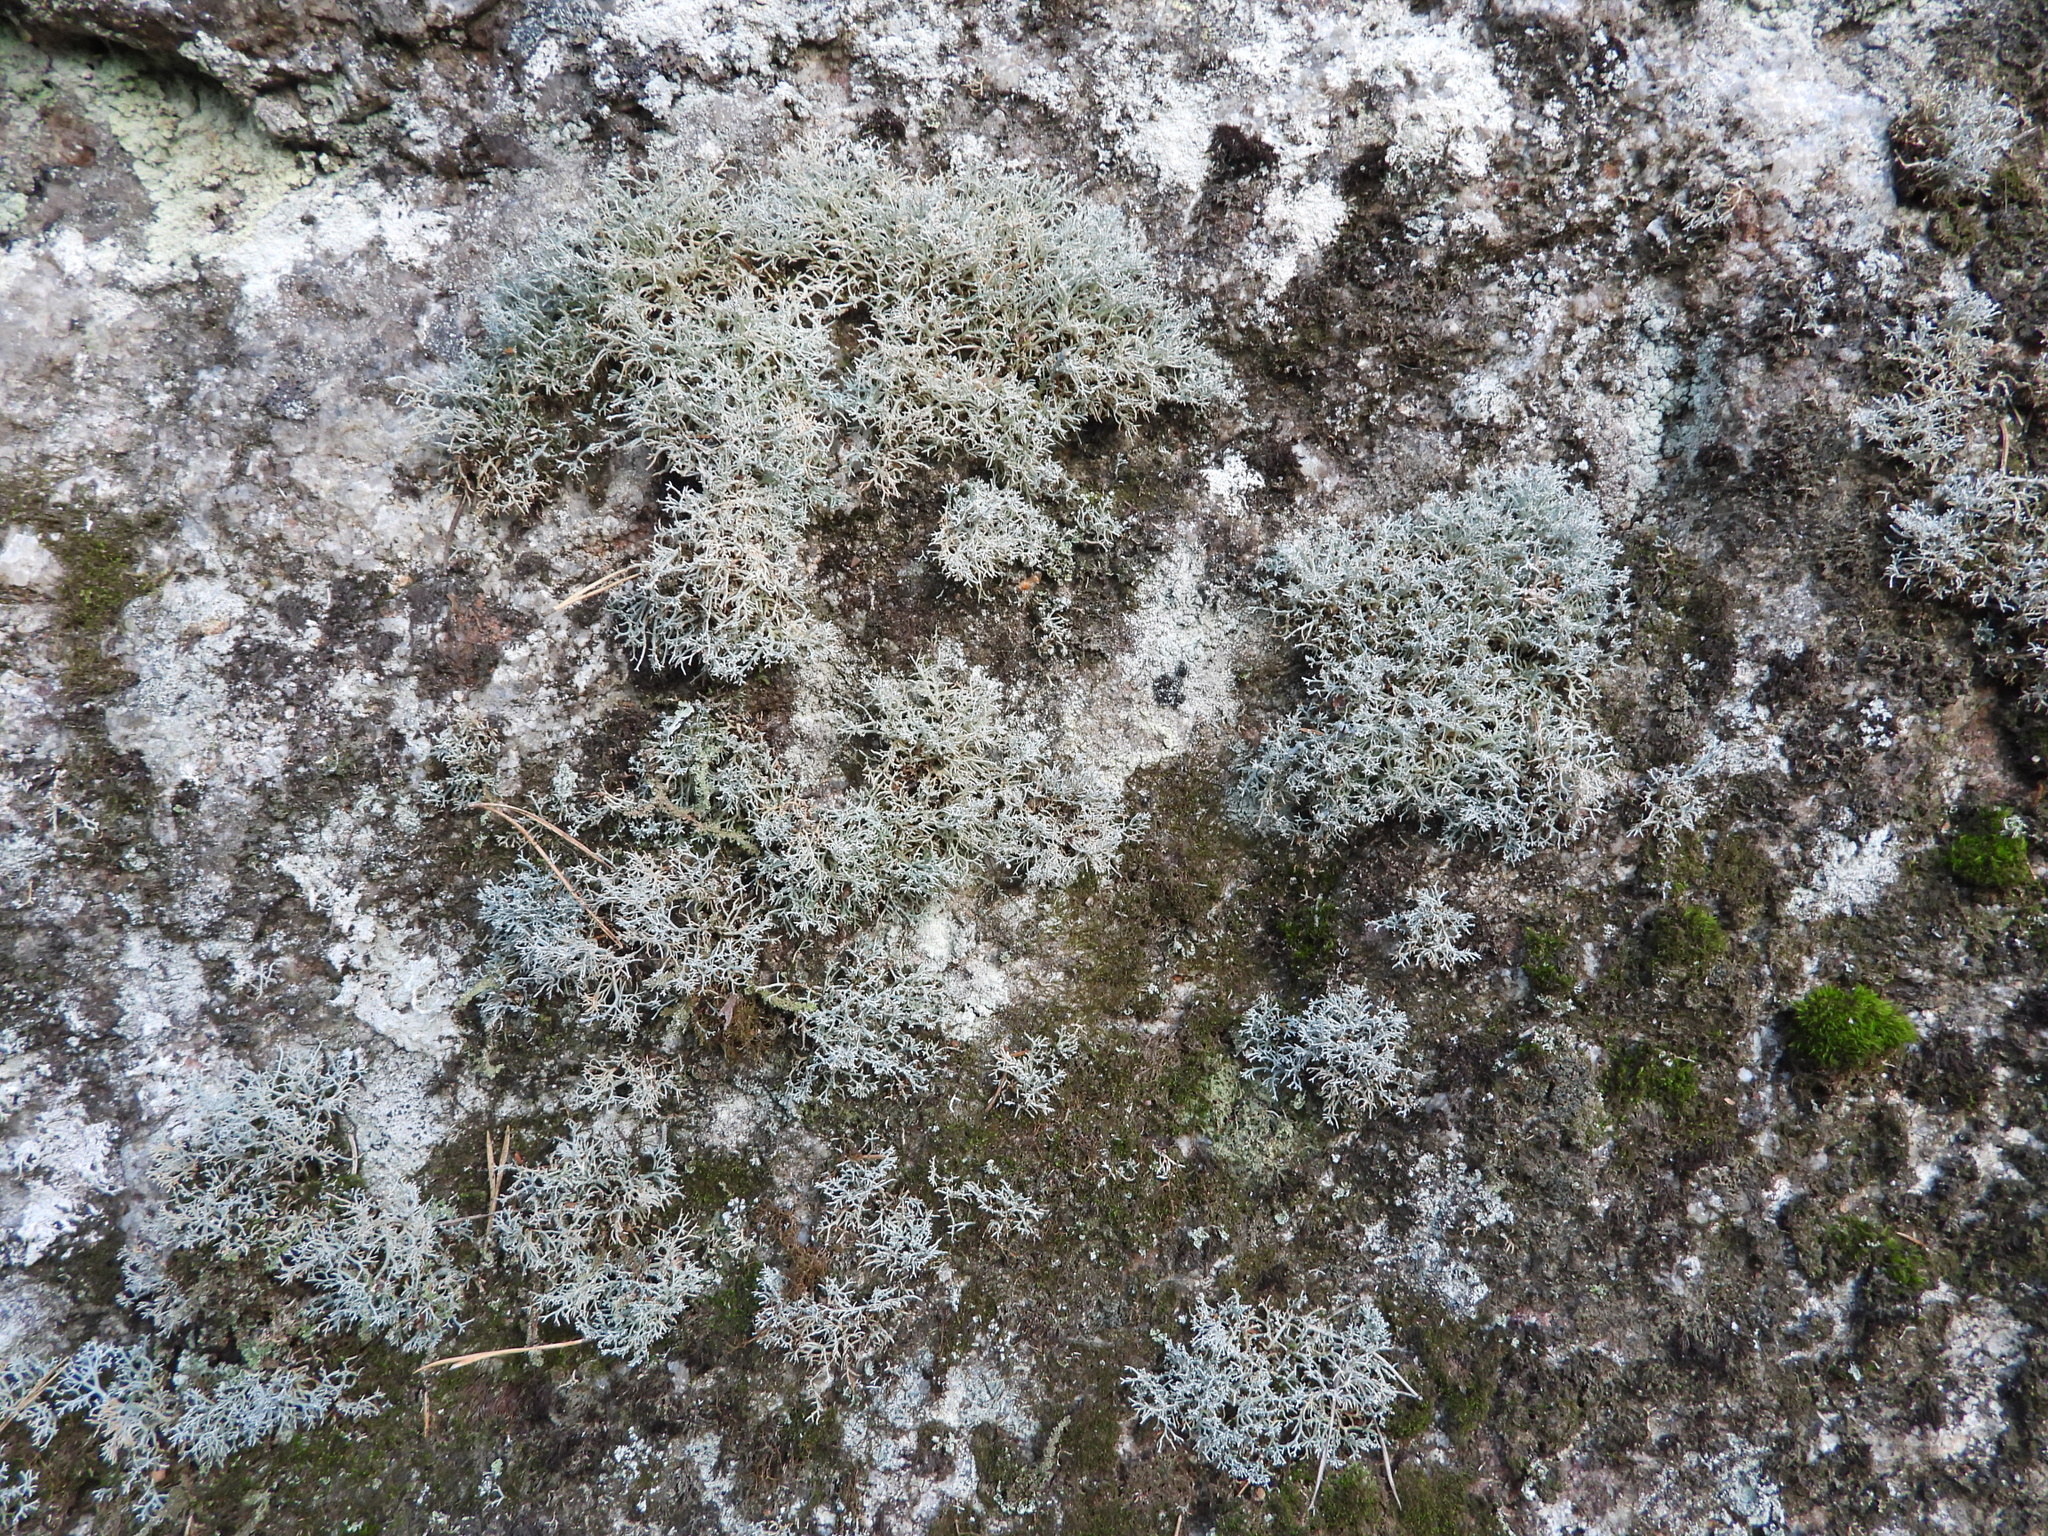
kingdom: Fungi
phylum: Ascomycota
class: Lecanoromycetes
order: Lecanorales
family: Sphaerophoraceae
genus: Sphaerophorus
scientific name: Sphaerophorus fragilis
